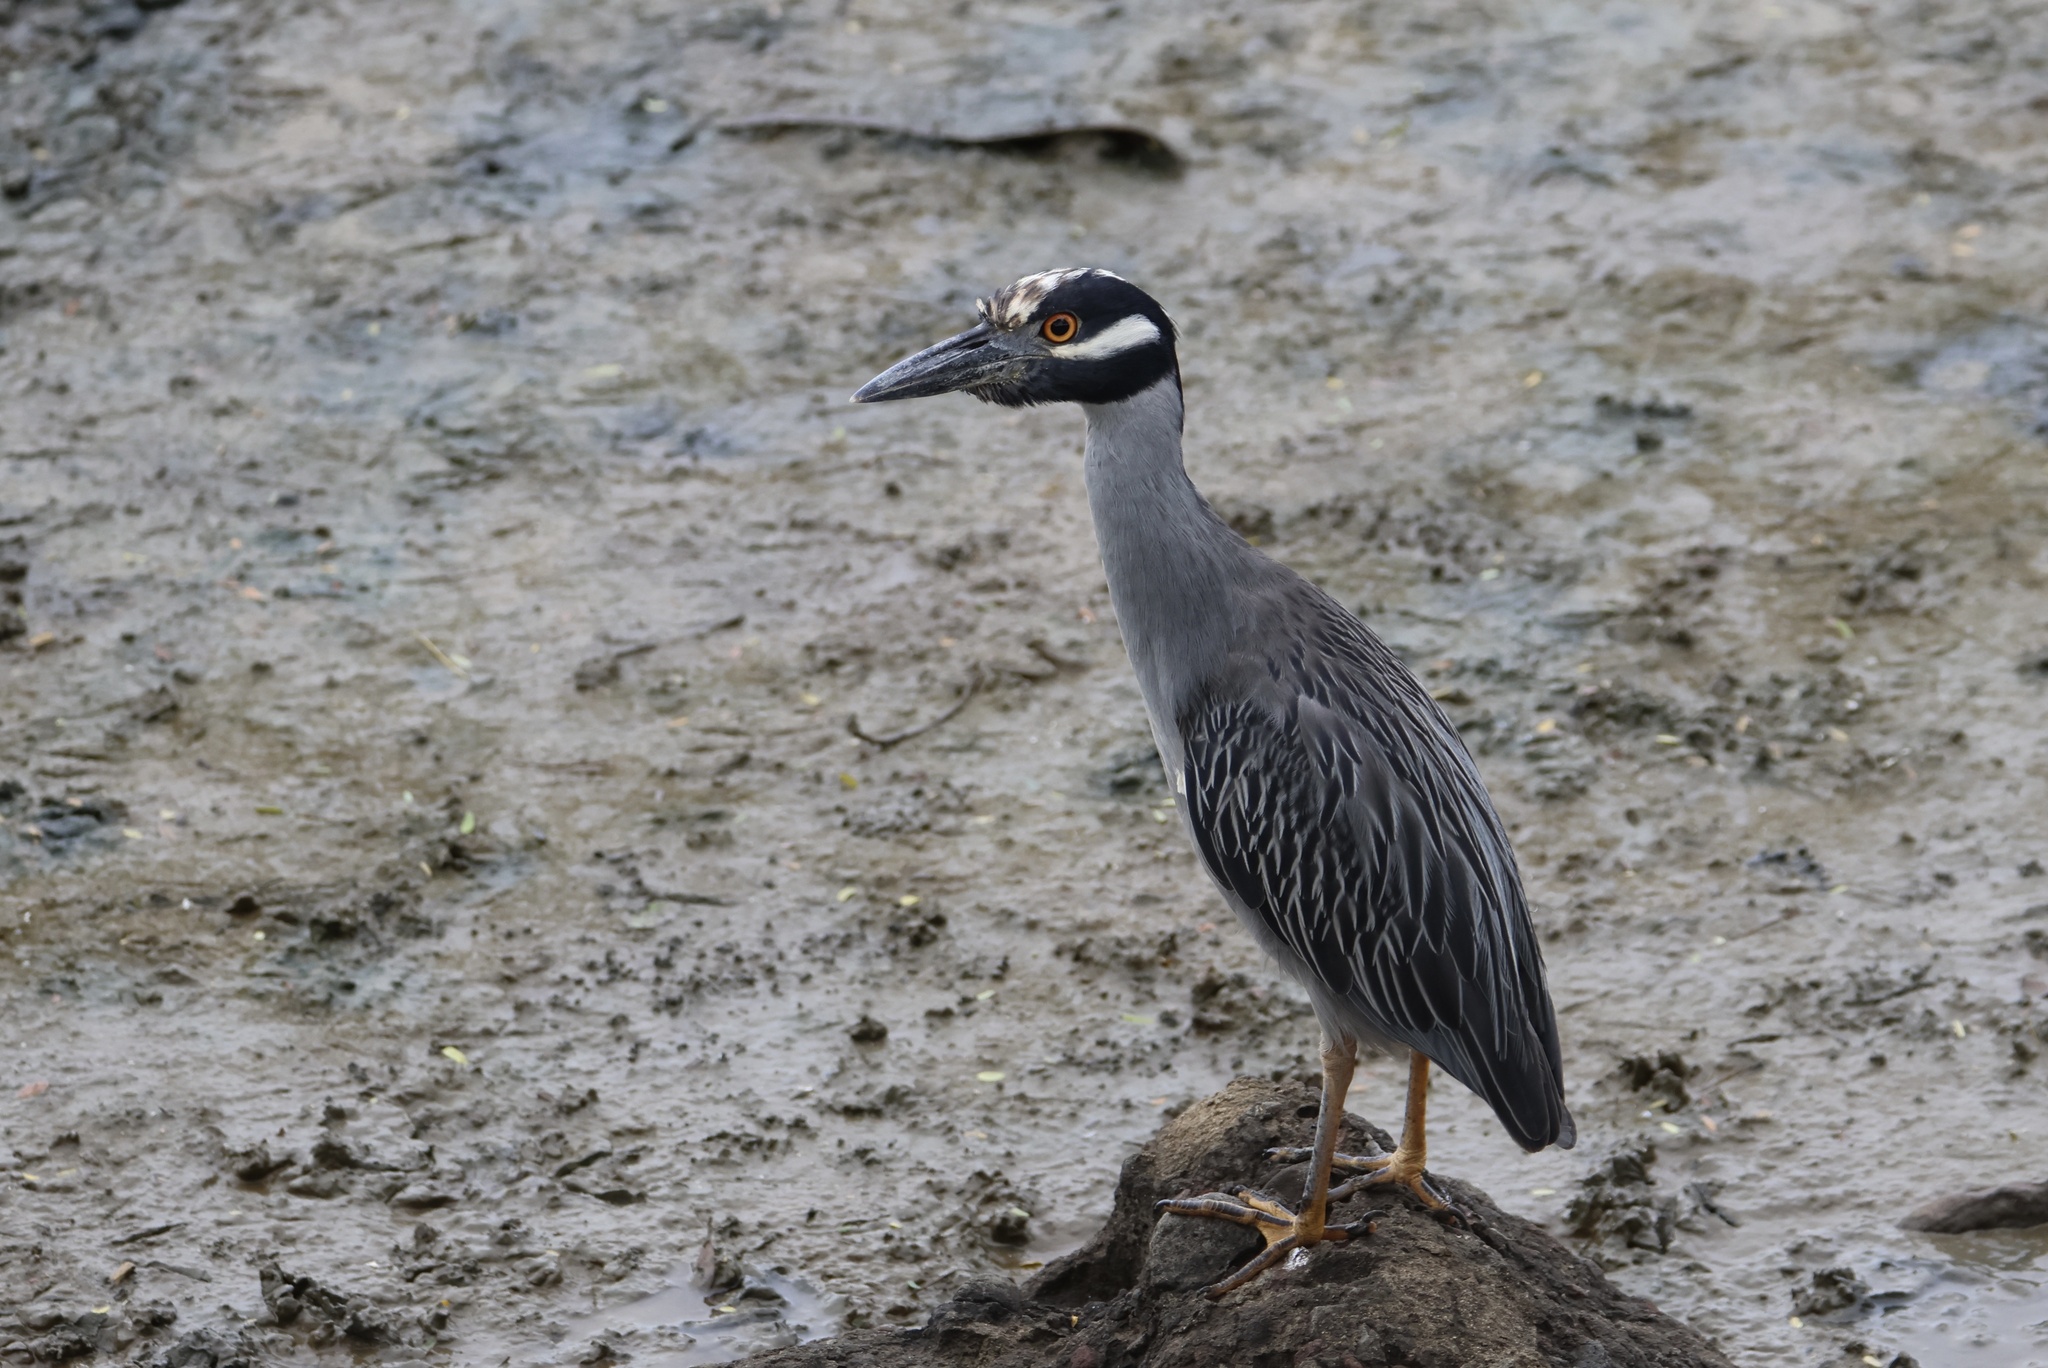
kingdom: Animalia
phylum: Chordata
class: Aves
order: Pelecaniformes
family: Ardeidae
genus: Nyctanassa
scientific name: Nyctanassa violacea
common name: Yellow-crowned night heron
